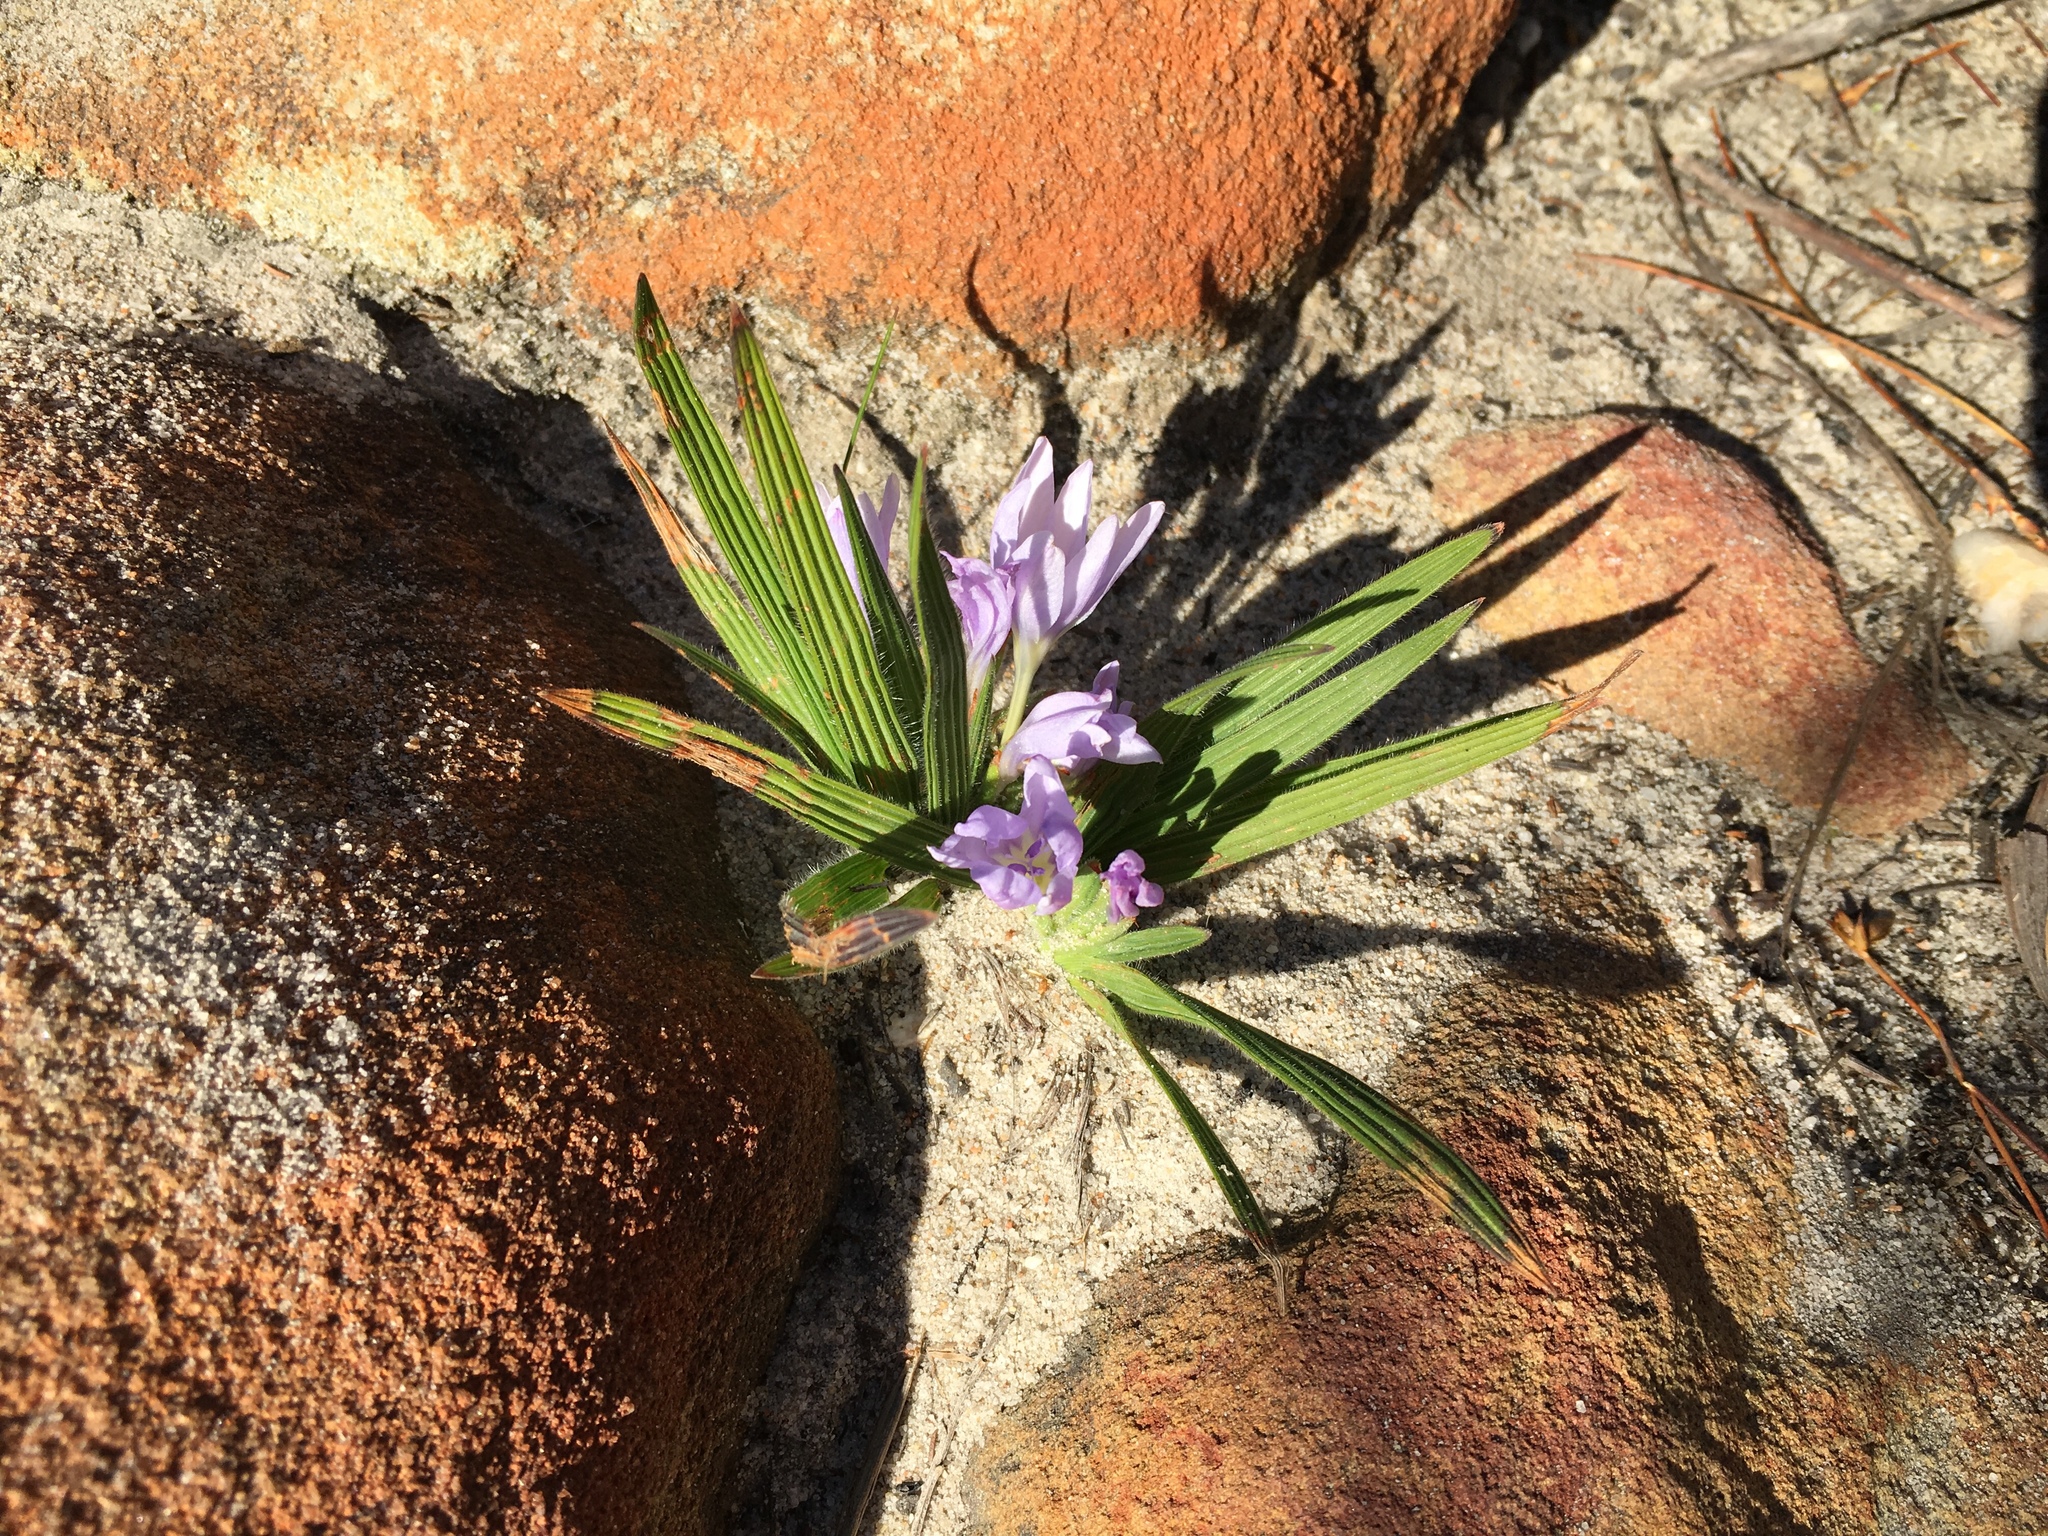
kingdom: Plantae
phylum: Tracheophyta
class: Liliopsida
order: Asparagales
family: Iridaceae
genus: Babiana
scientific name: Babiana villosula
